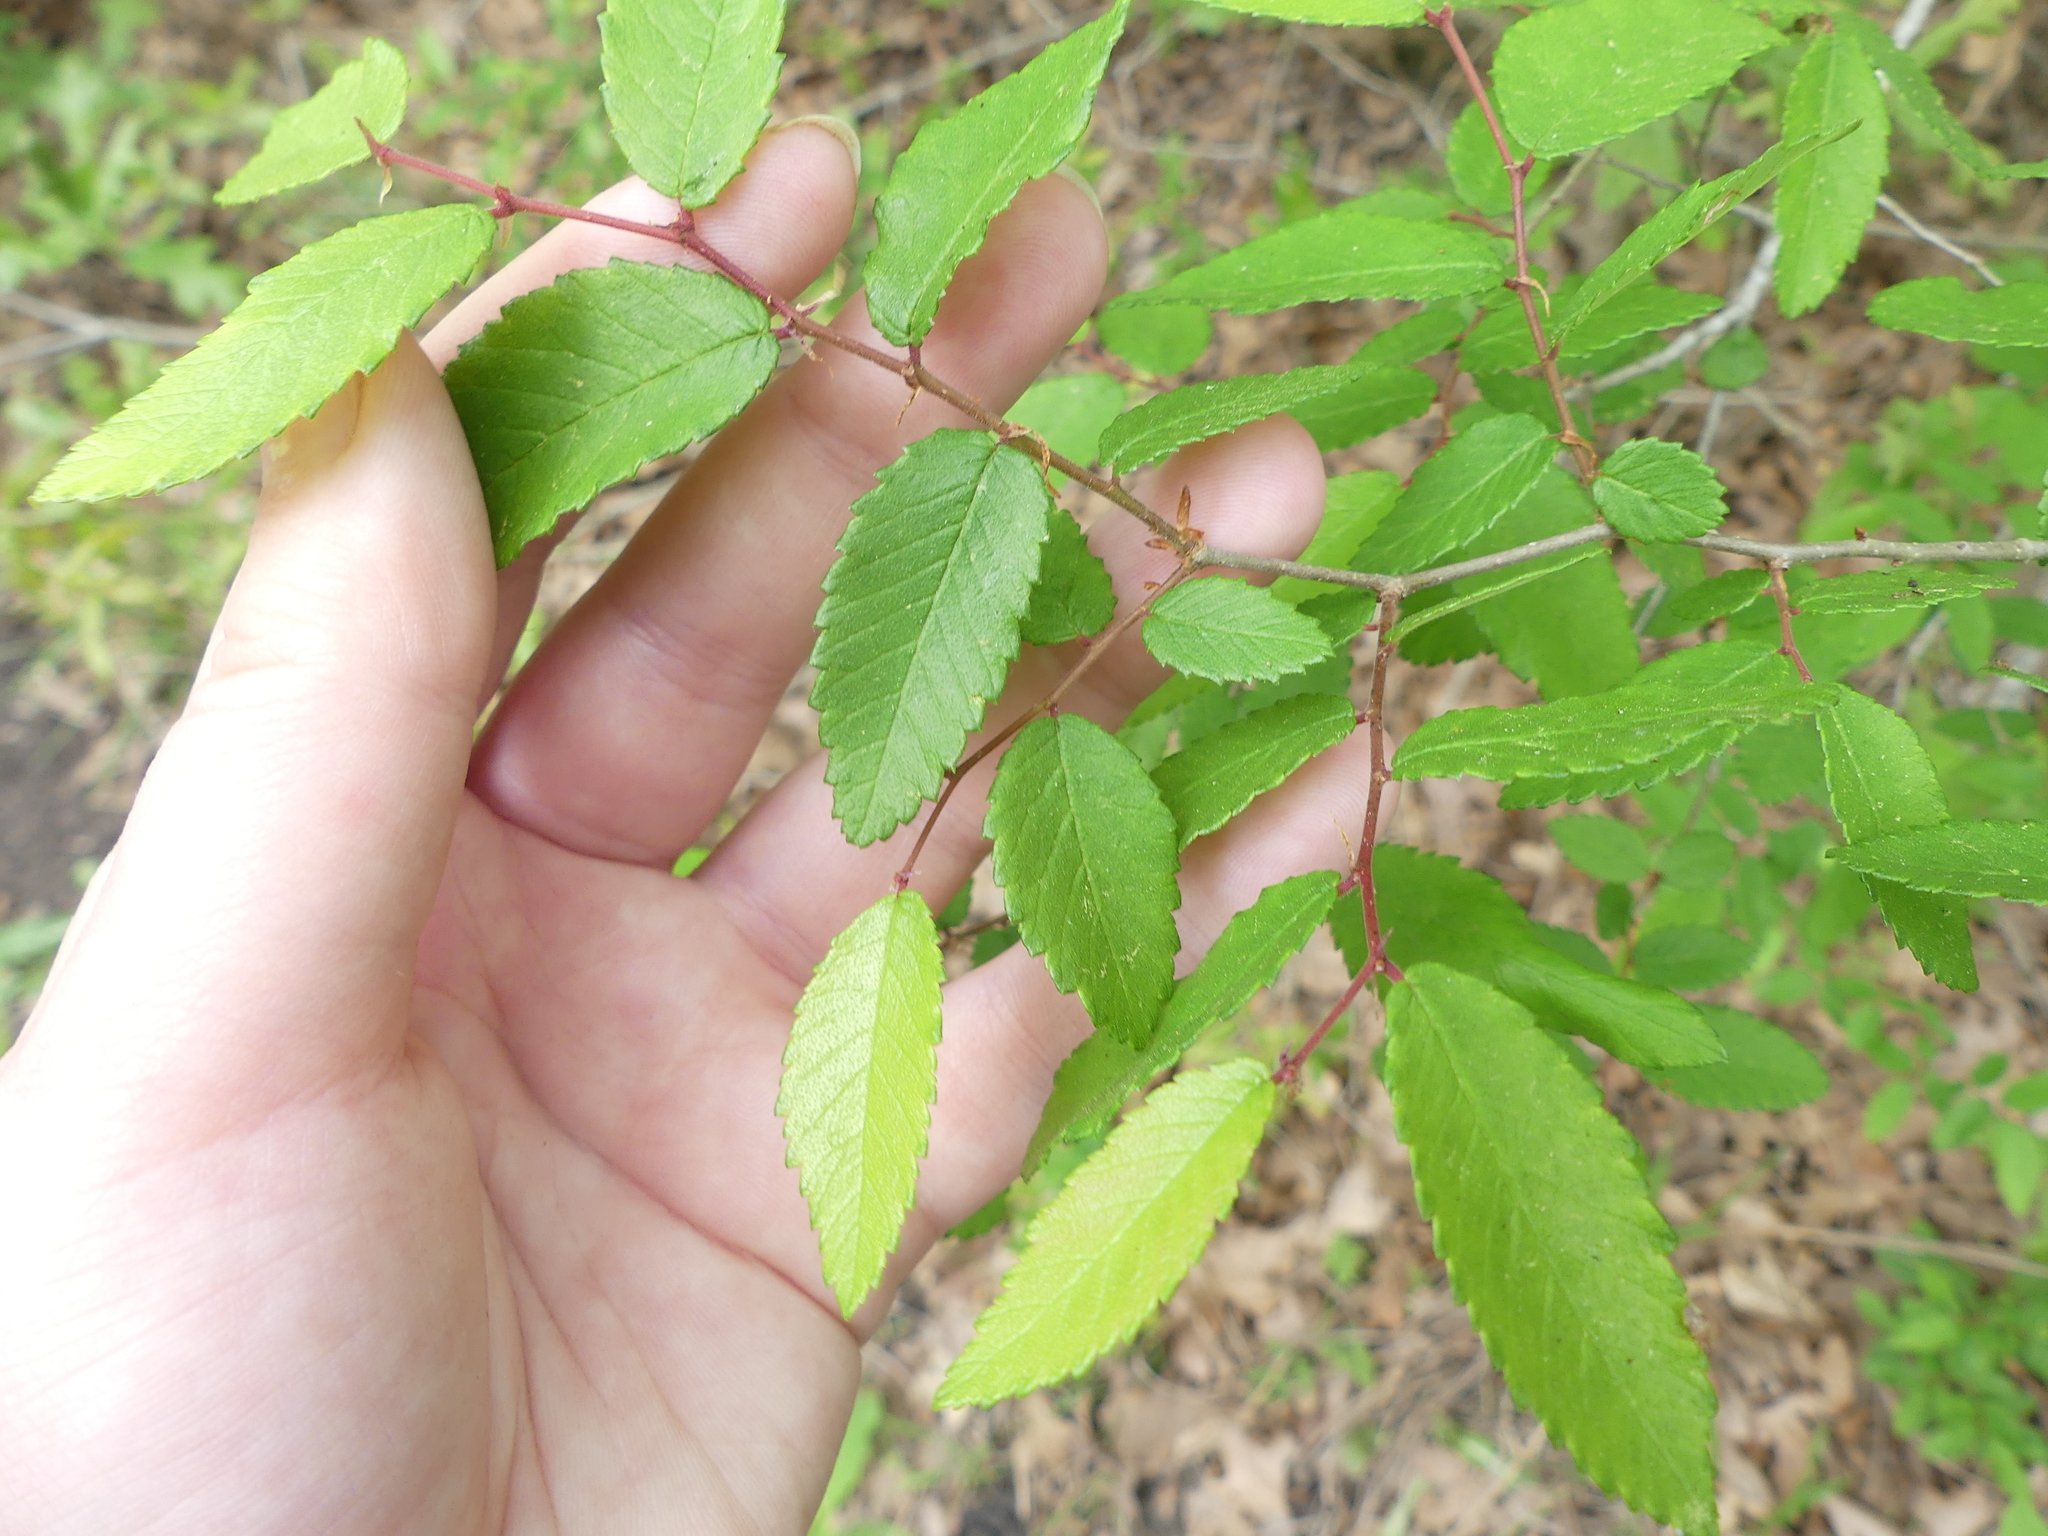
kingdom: Plantae
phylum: Tracheophyta
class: Magnoliopsida
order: Rosales
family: Ulmaceae
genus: Ulmus
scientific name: Ulmus crassifolia
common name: Basket elm
